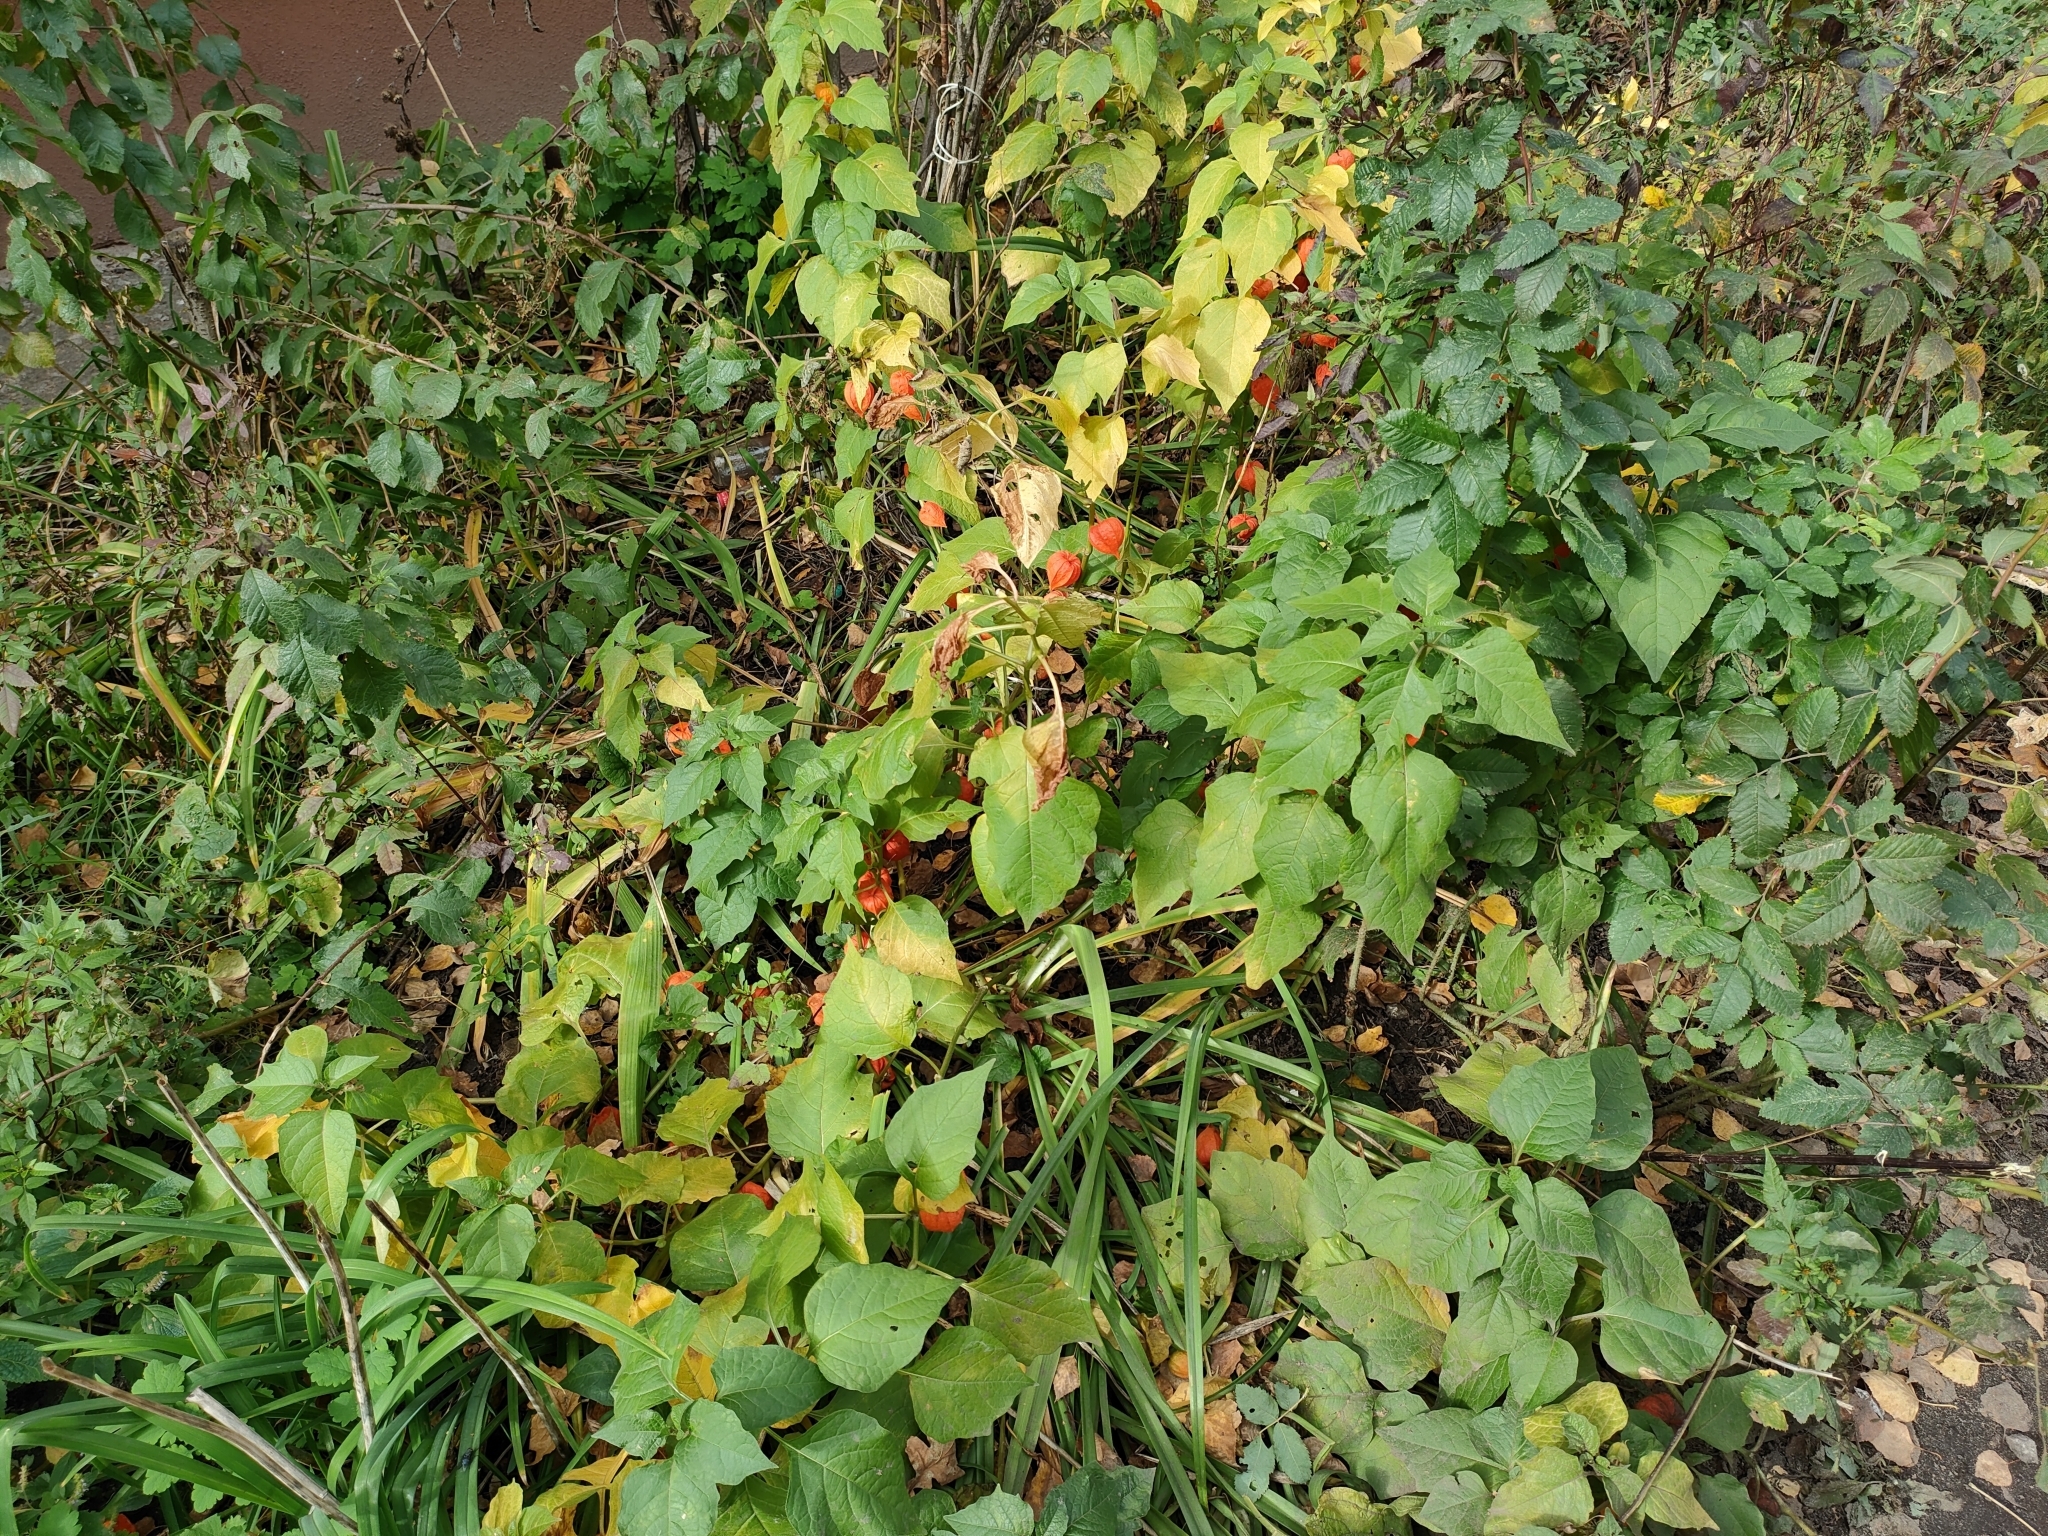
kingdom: Plantae
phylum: Tracheophyta
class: Magnoliopsida
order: Solanales
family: Solanaceae
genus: Alkekengi
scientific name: Alkekengi officinarum
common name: Japanese-lantern
